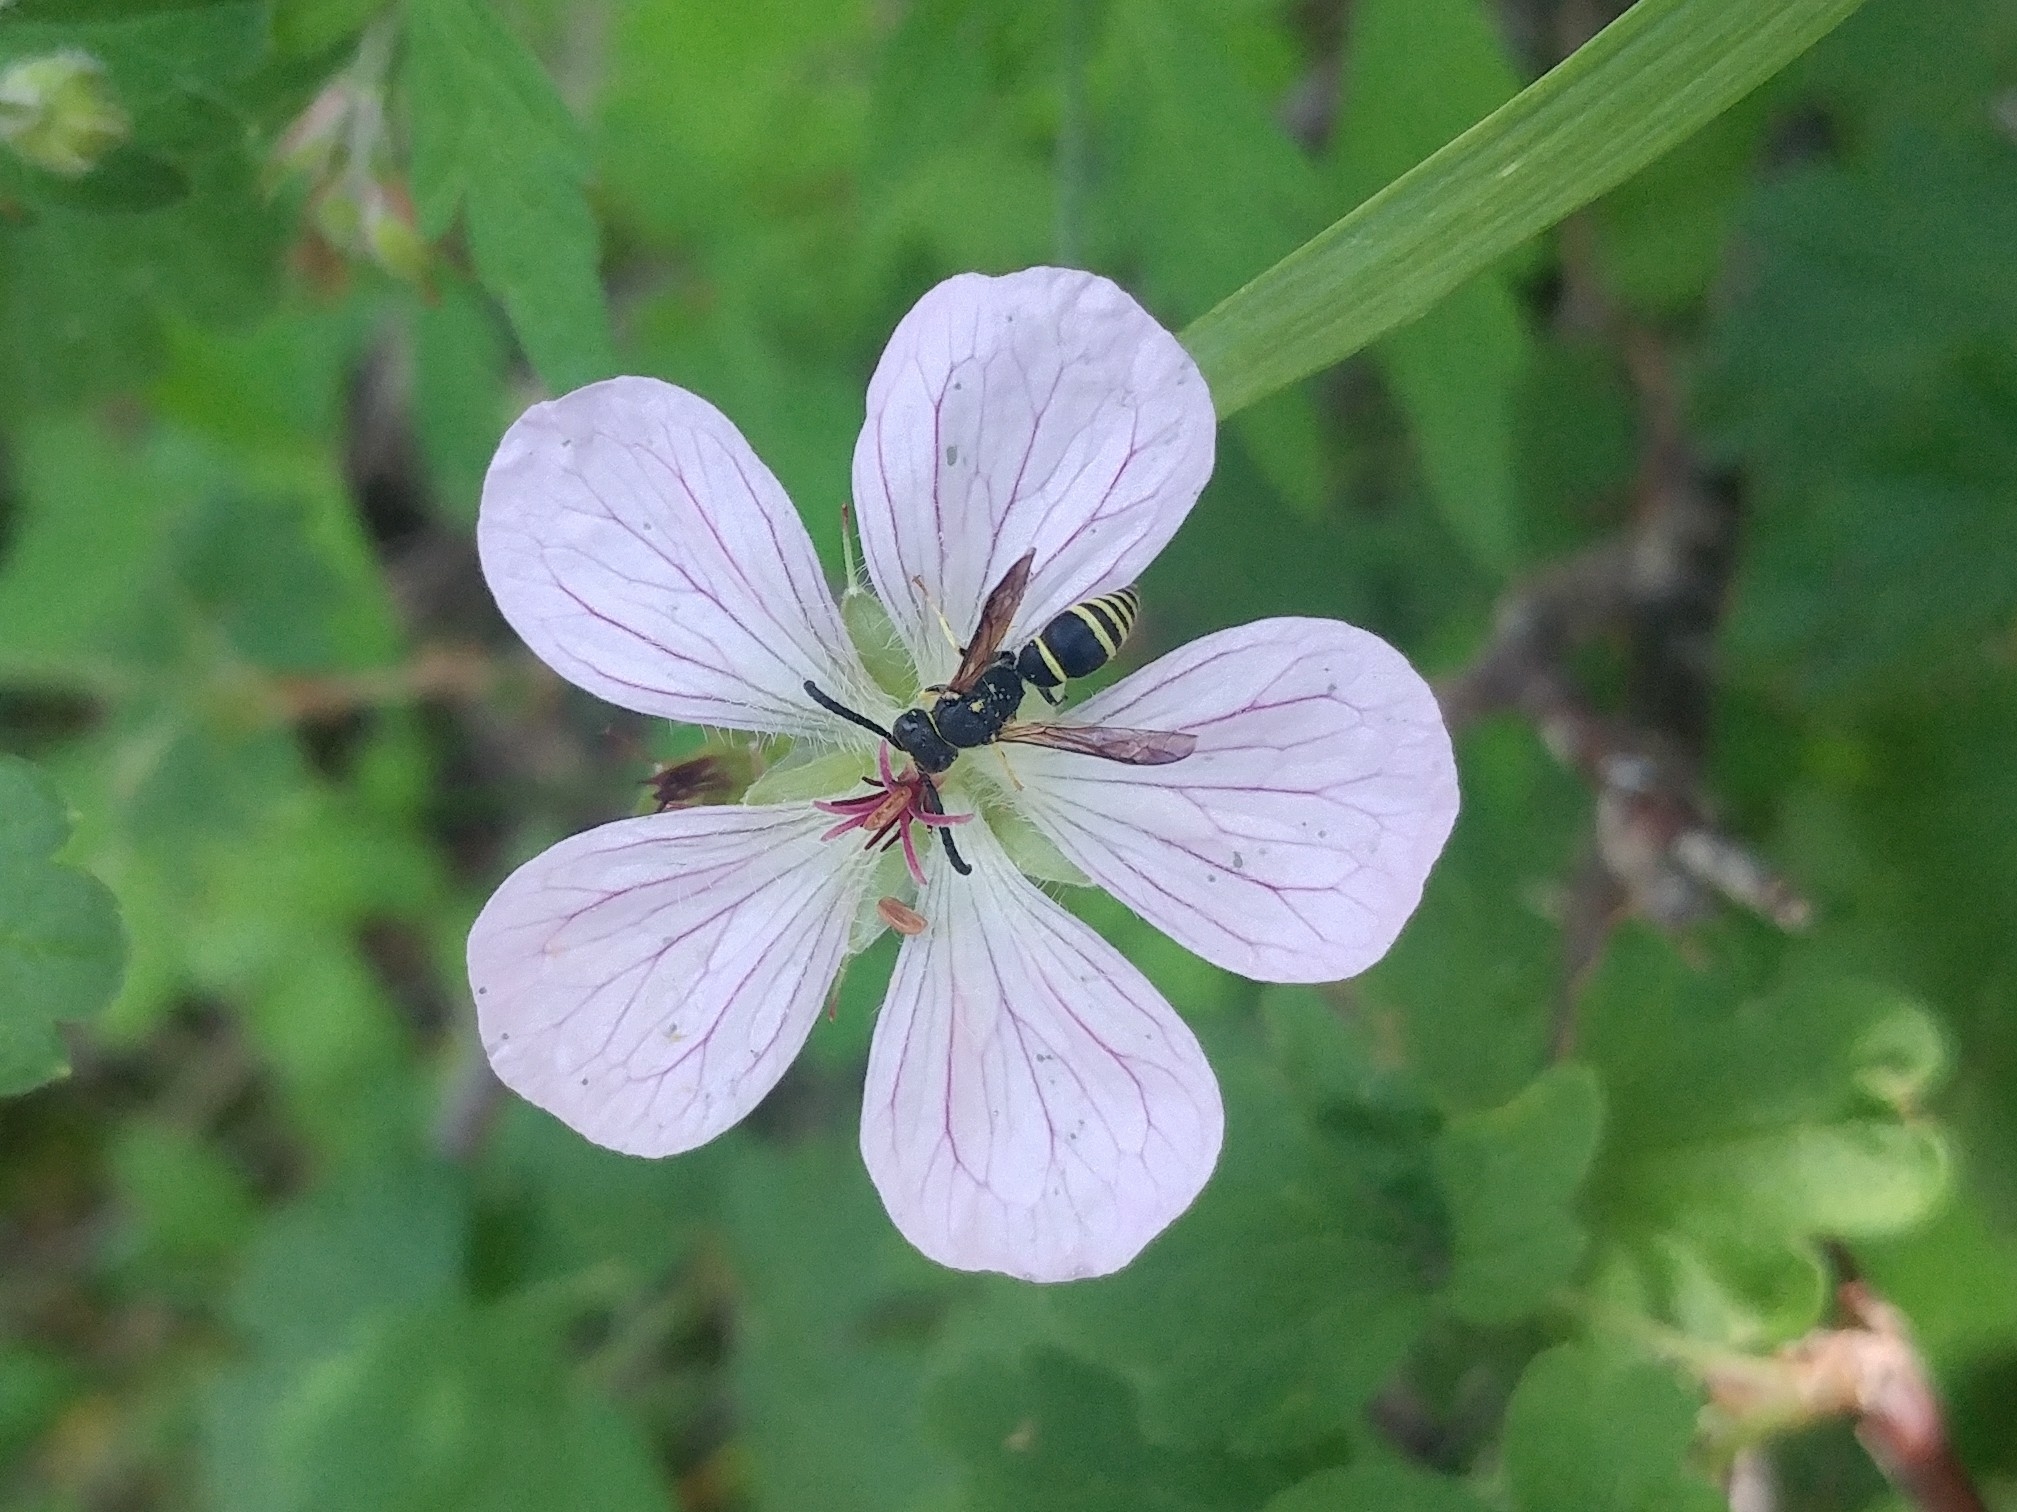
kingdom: Plantae
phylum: Tracheophyta
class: Magnoliopsida
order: Geraniales
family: Geraniaceae
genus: Geranium
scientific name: Geranium richardsonii
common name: Richardson's crane's-bill
